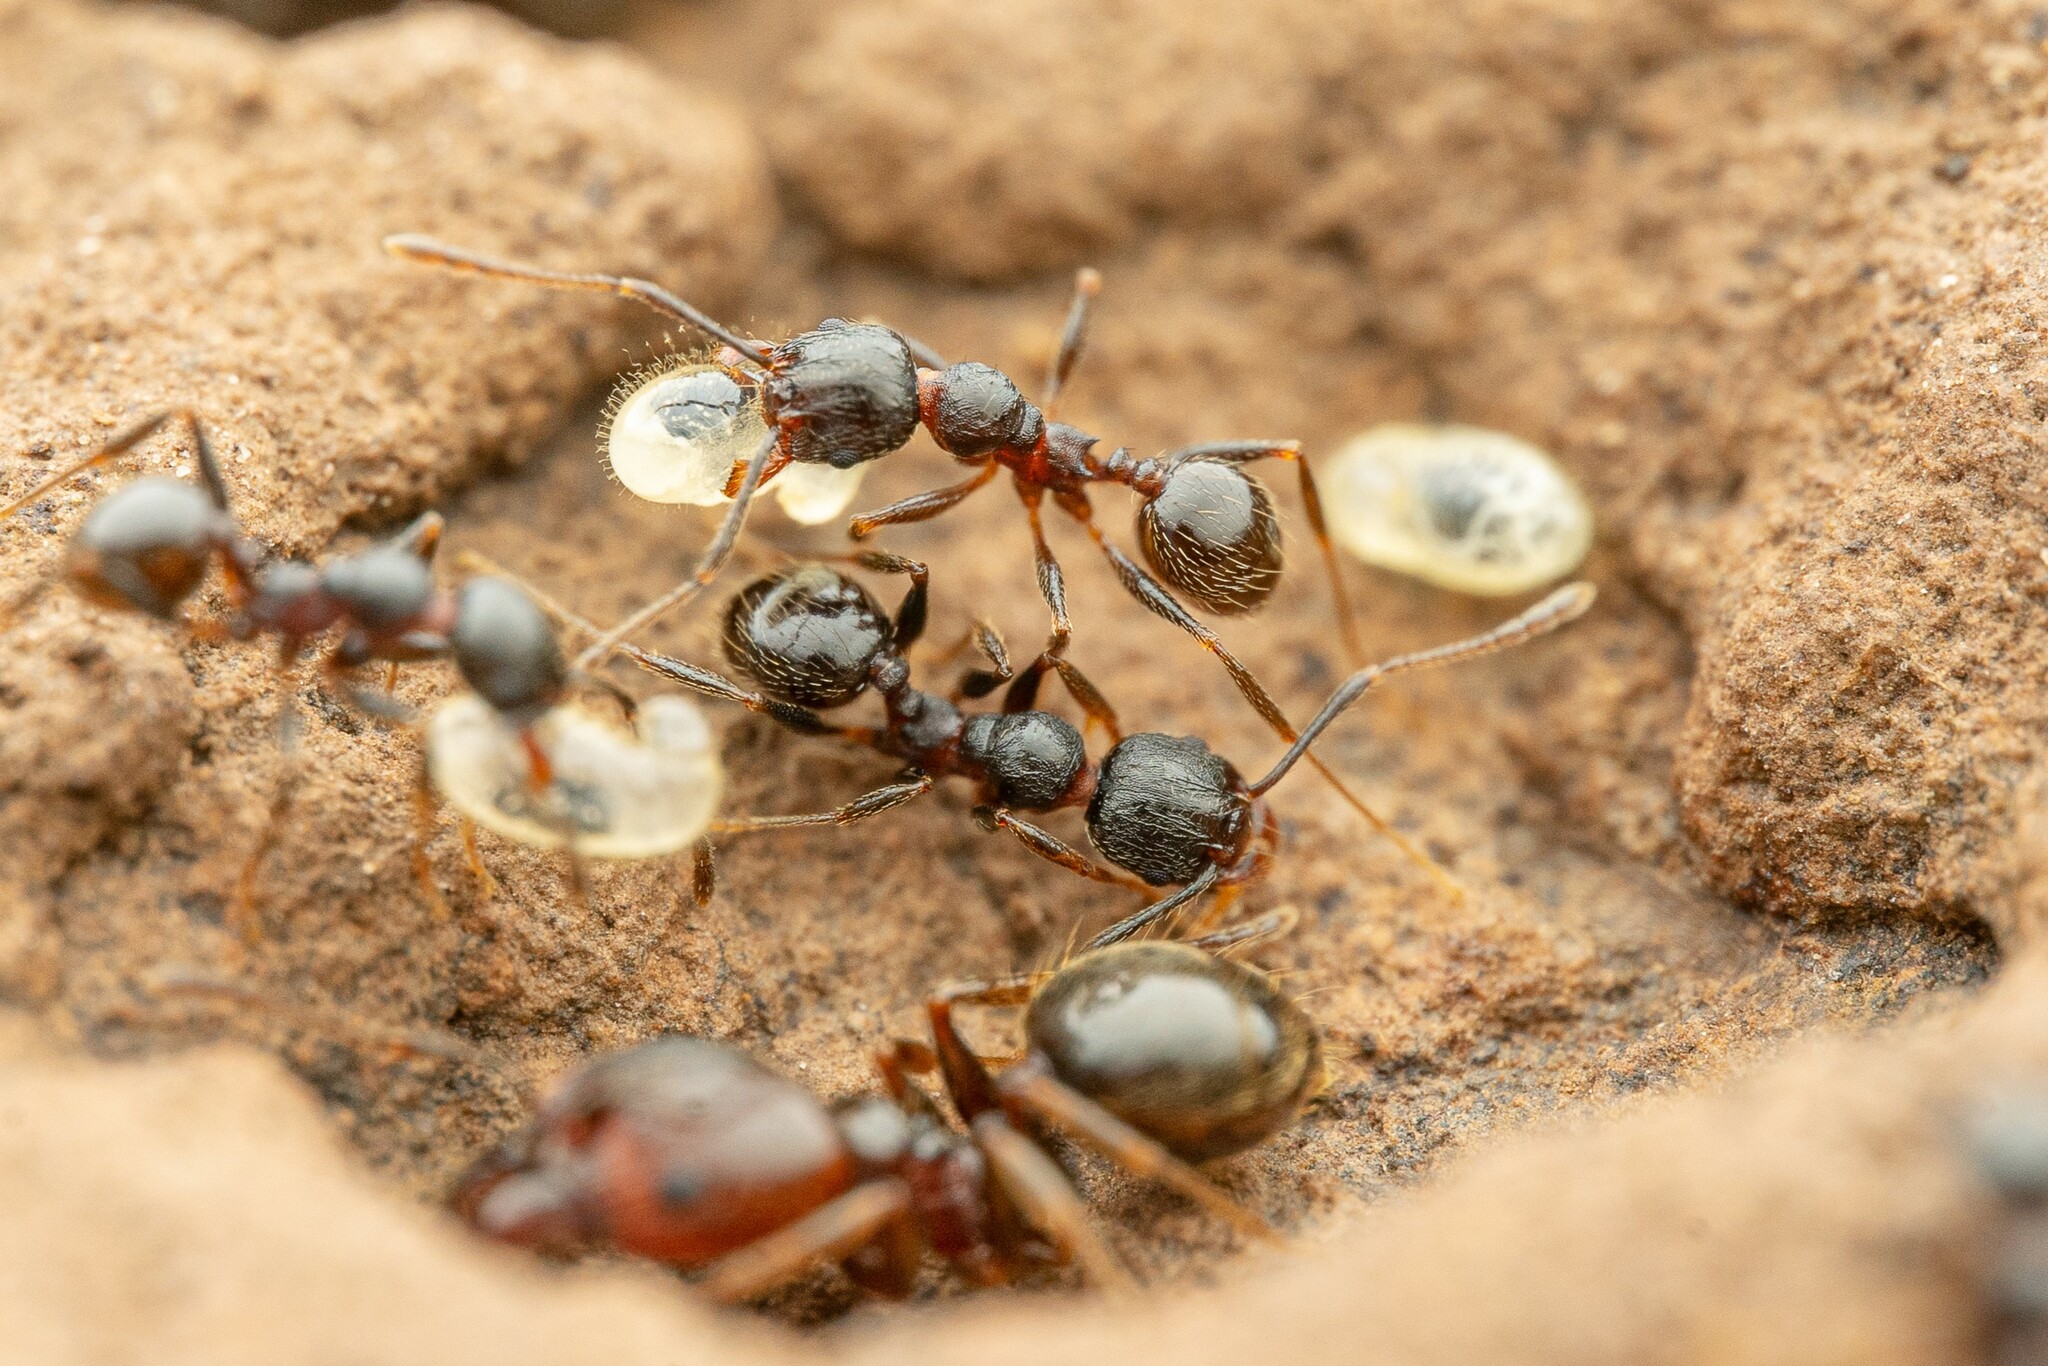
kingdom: Animalia
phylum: Arthropoda
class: Insecta
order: Hymenoptera
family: Formicidae
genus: Pheidole
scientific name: Pheidole vallicola
